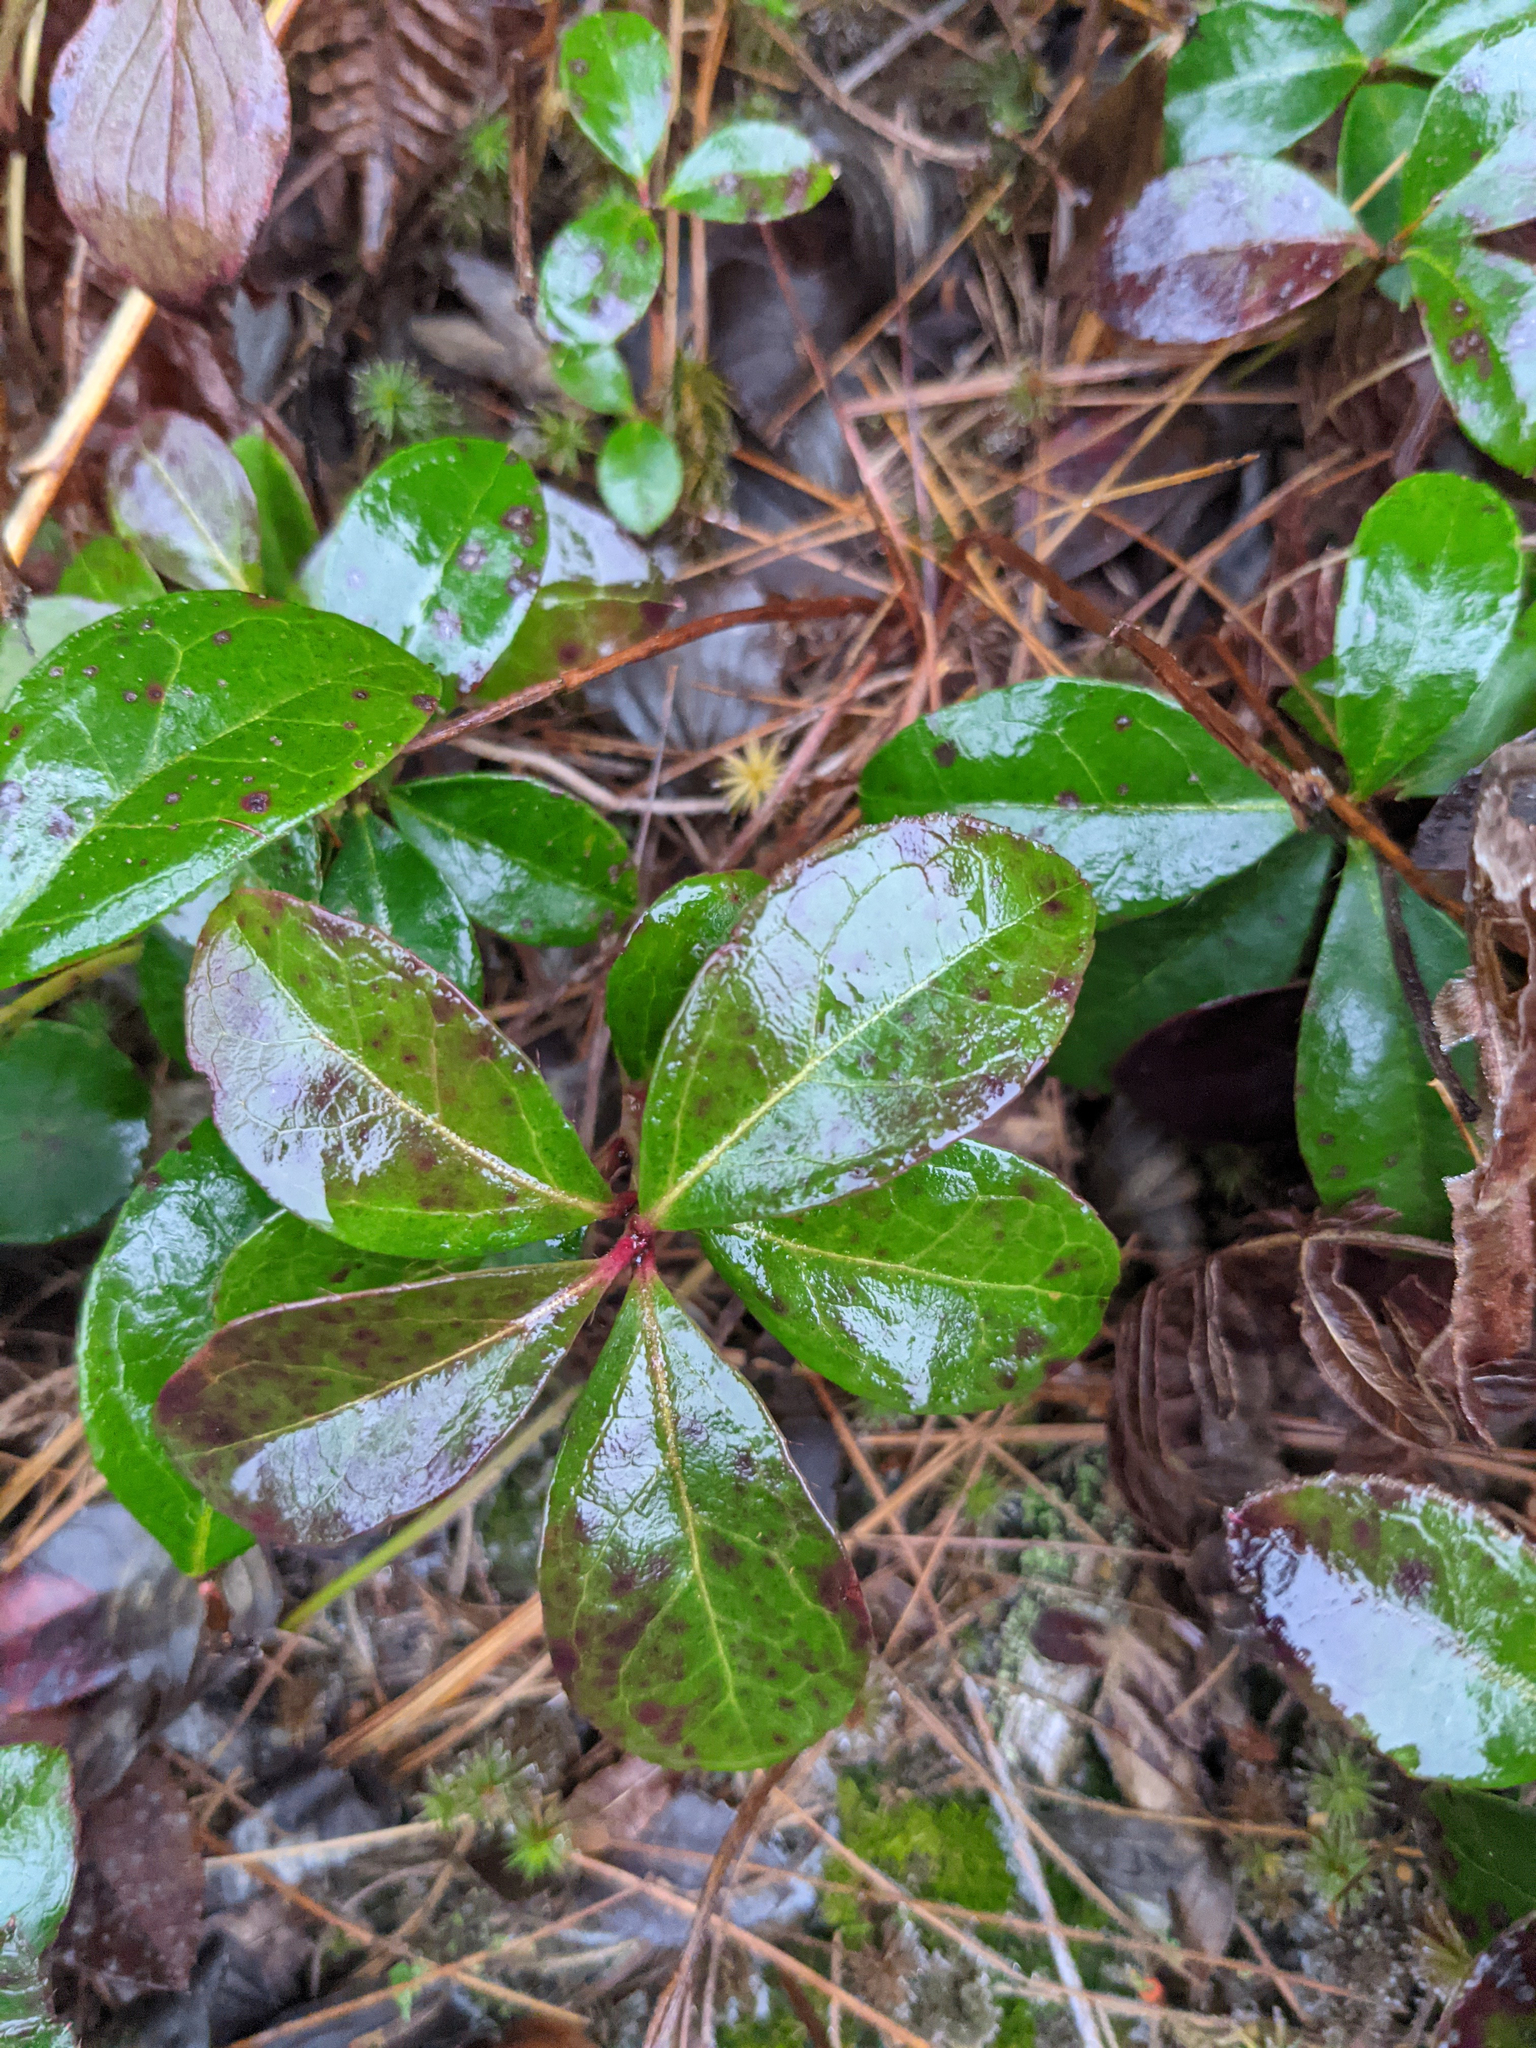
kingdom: Plantae
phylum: Tracheophyta
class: Magnoliopsida
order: Ericales
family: Ericaceae
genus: Gaultheria
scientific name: Gaultheria procumbens
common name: Checkerberry
